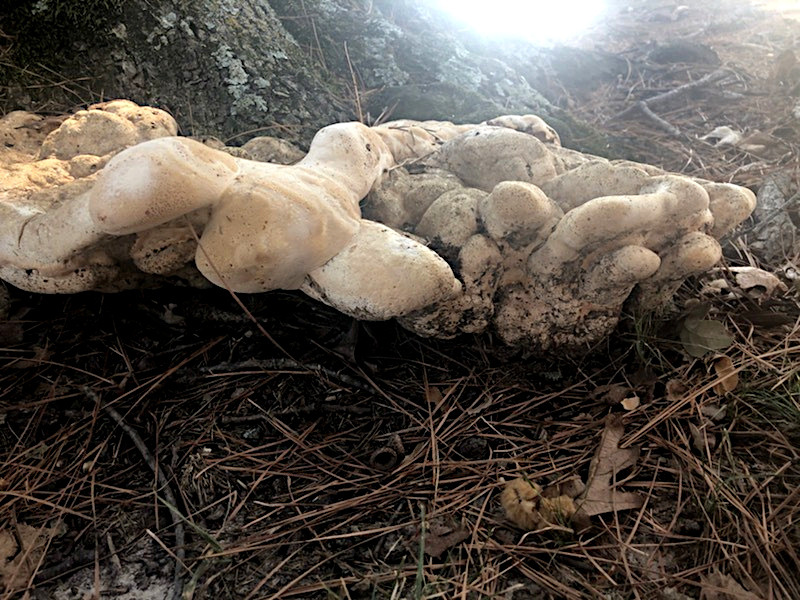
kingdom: Fungi
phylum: Basidiomycota
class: Agaricomycetes
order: Hymenochaetales
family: Hymenochaetaceae
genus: Pseudoinonotus
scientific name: Pseudoinonotus dryadeus
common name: Oak bracket
